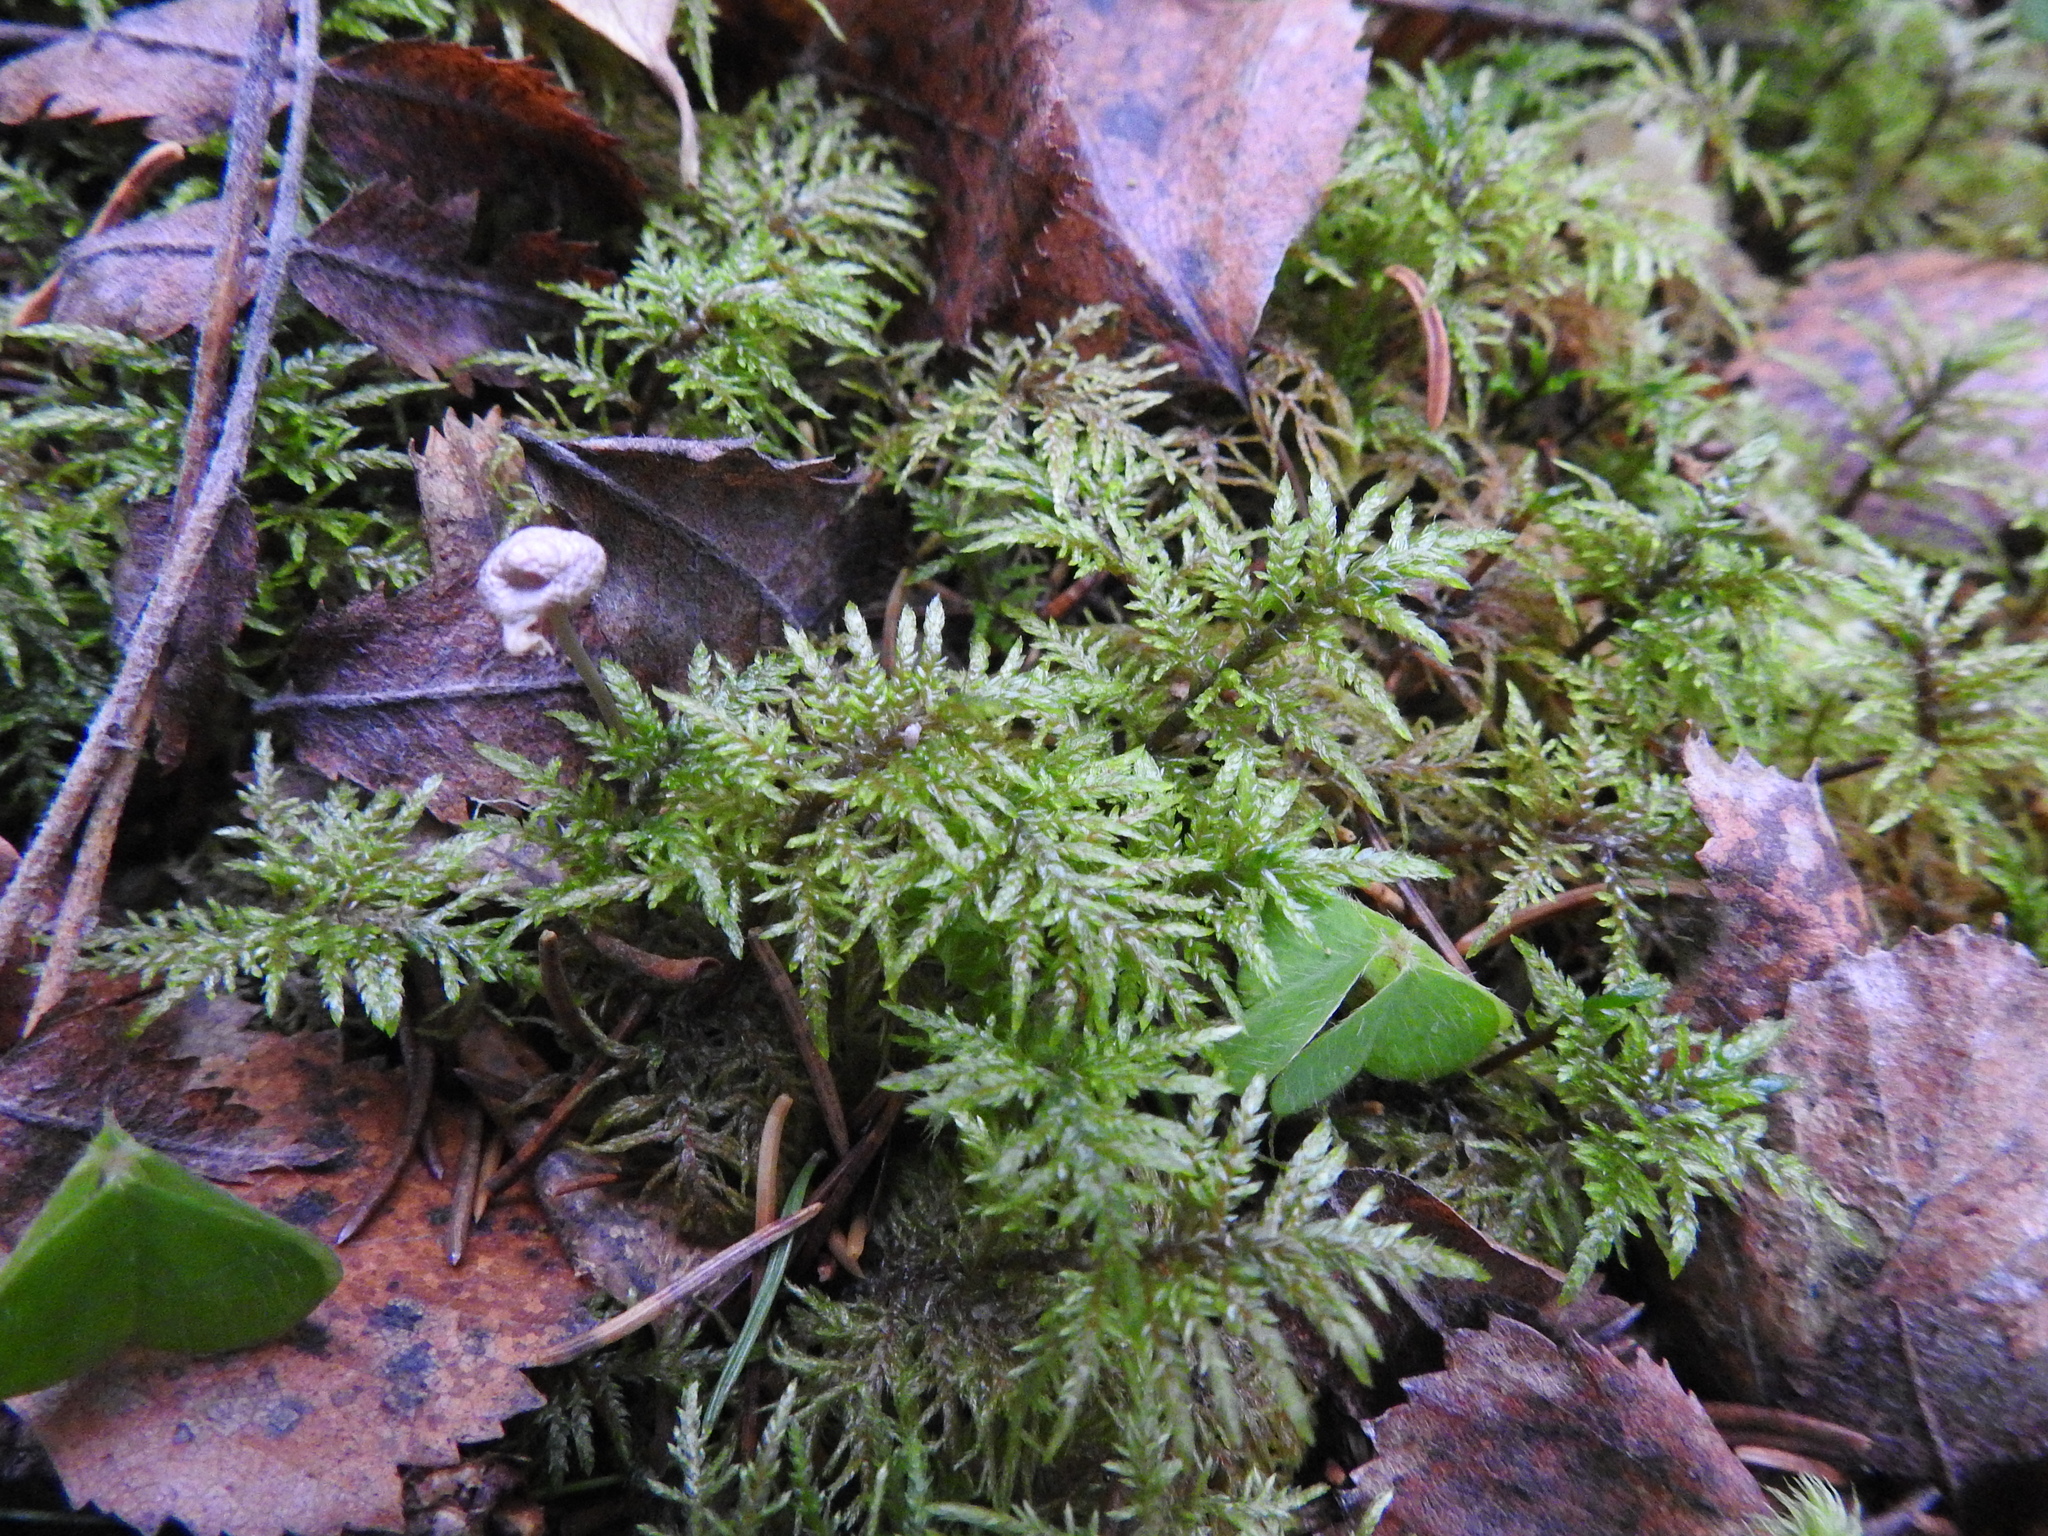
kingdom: Plantae
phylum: Bryophyta
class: Bryopsida
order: Hypnales
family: Hylocomiaceae
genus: Hylocomium
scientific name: Hylocomium splendens
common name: Stairstep moss
